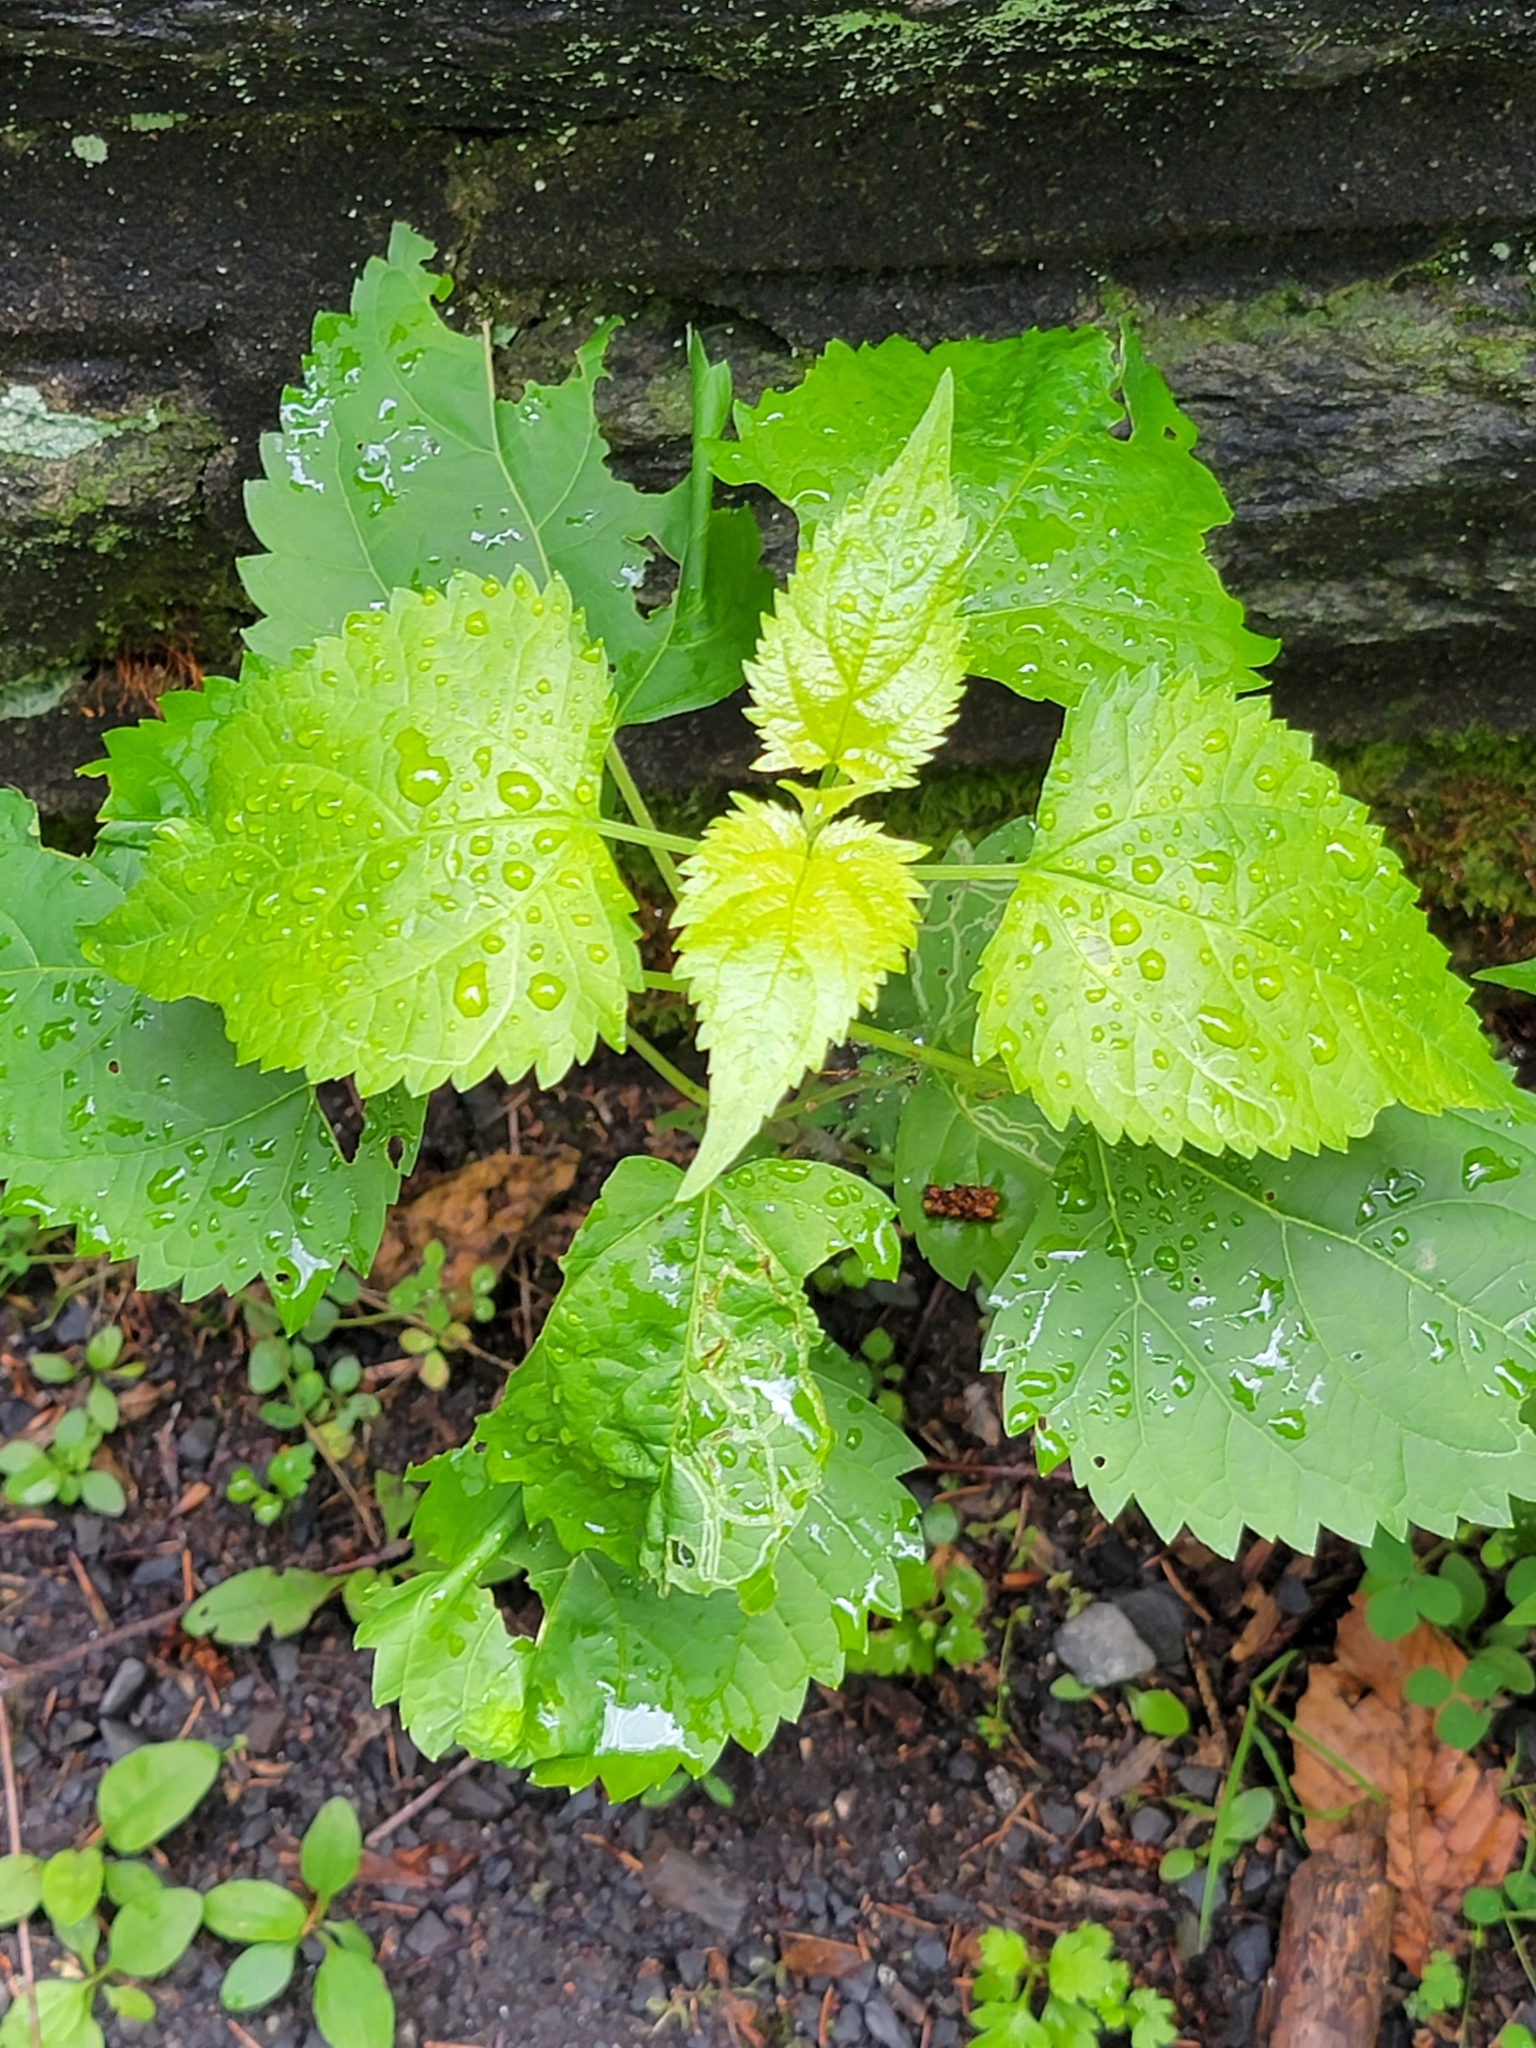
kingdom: Plantae
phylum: Tracheophyta
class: Magnoliopsida
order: Asterales
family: Asteraceae
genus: Ageratina
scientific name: Ageratina altissima
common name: White snakeroot
